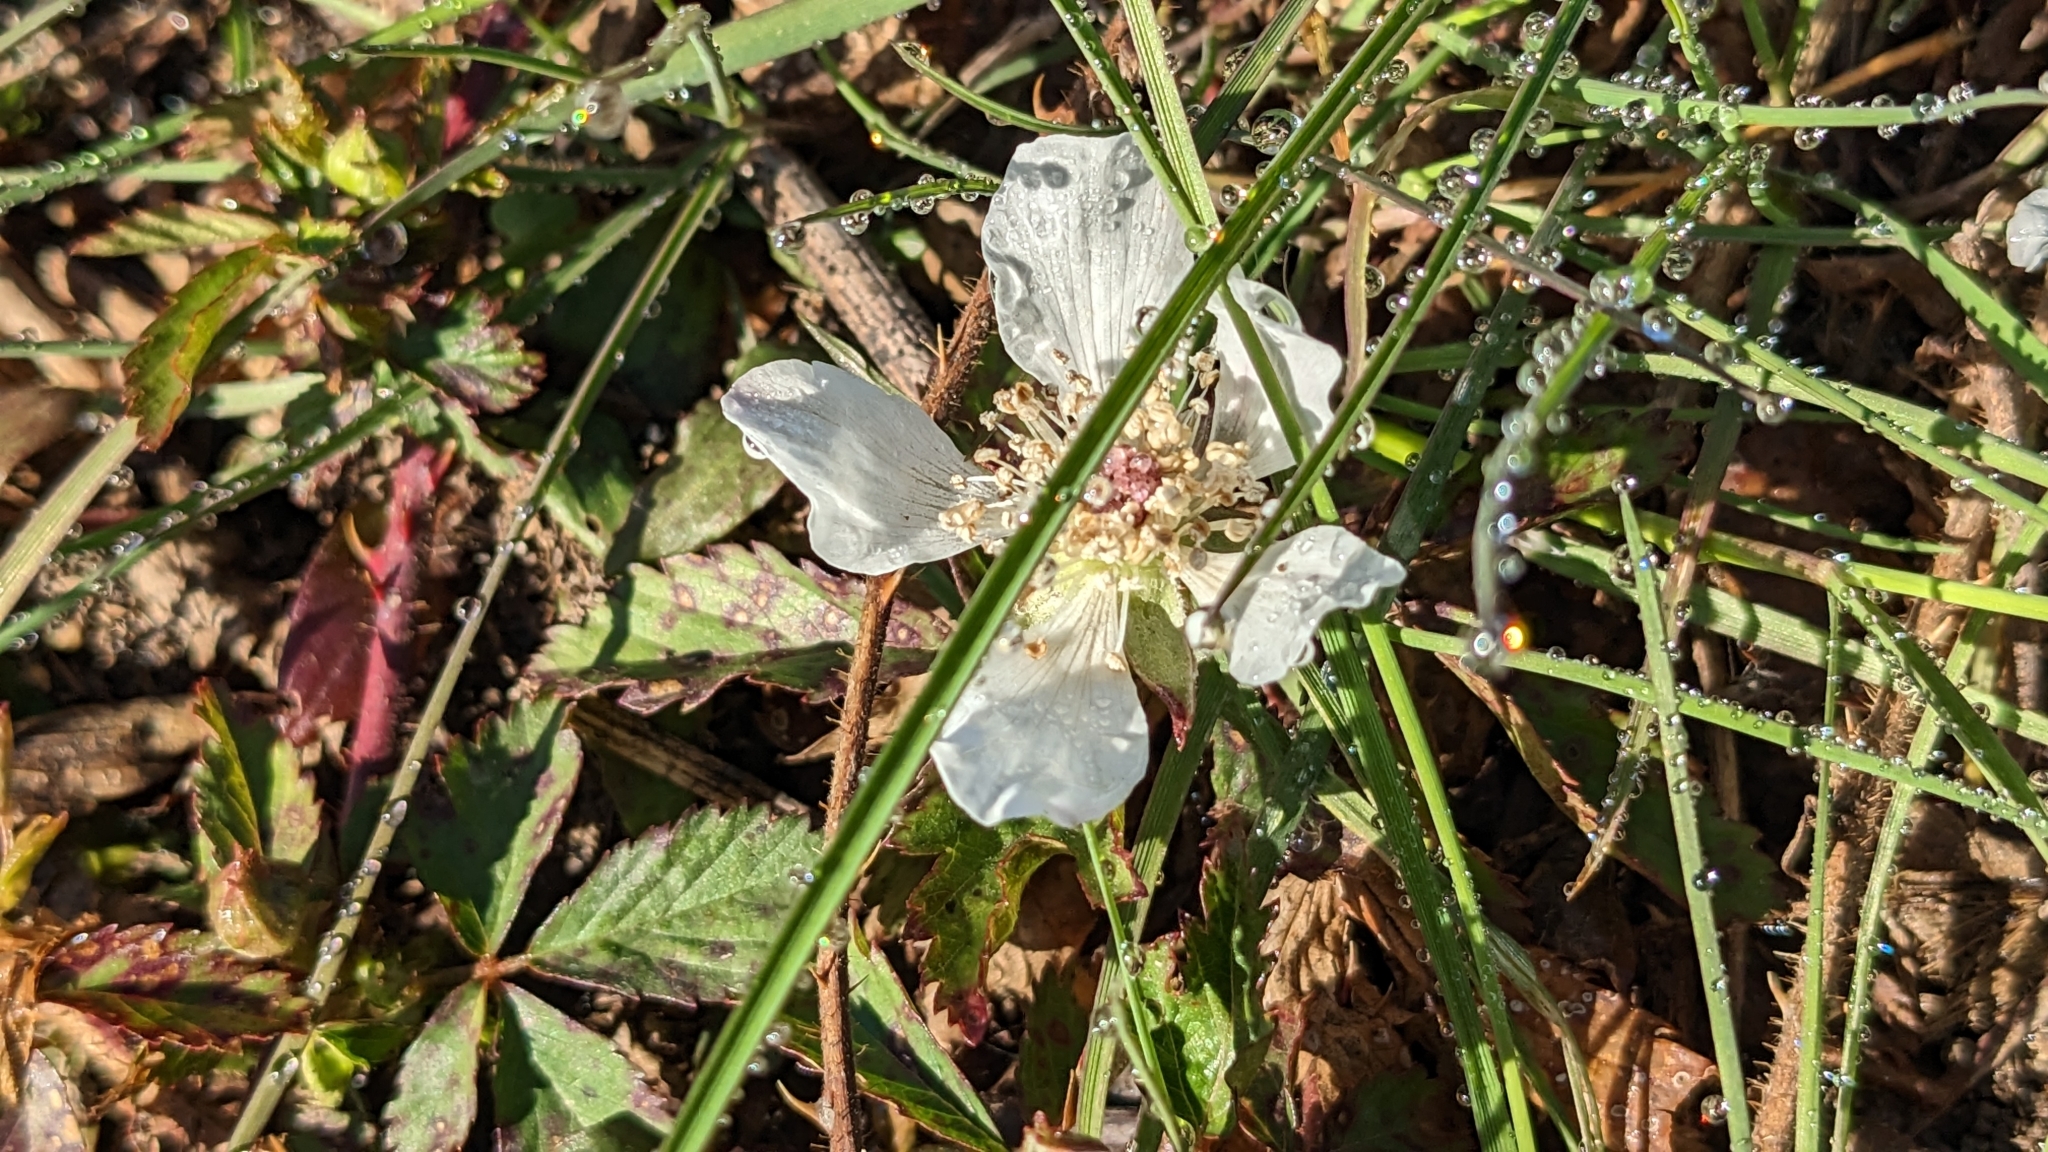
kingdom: Plantae
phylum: Tracheophyta
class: Magnoliopsida
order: Rosales
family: Rosaceae
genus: Rubus
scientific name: Rubus trivialis
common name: Southern dewberry
